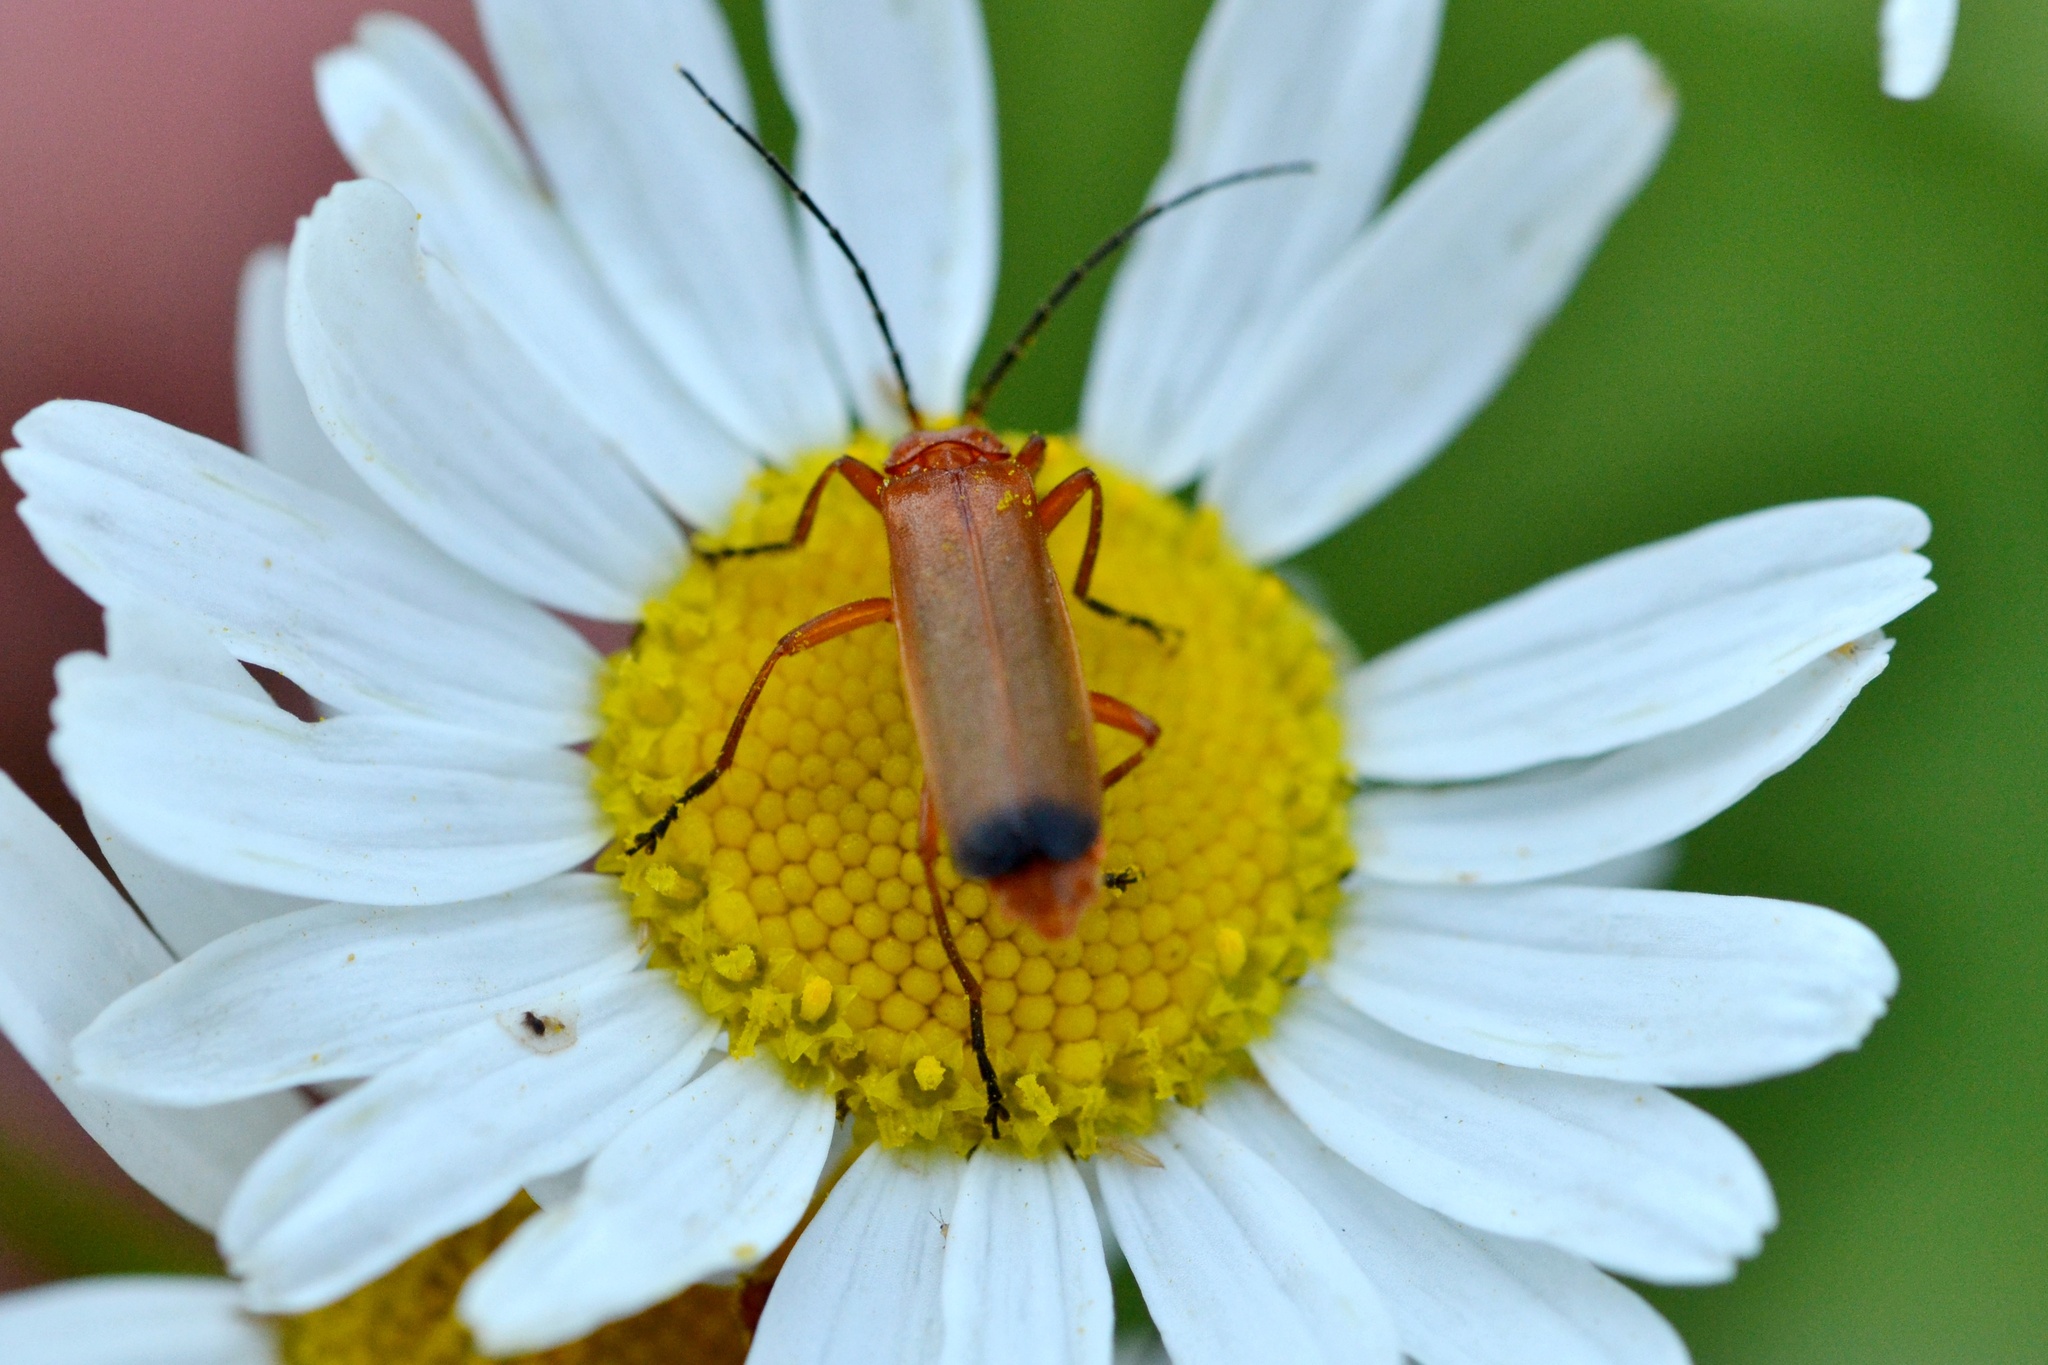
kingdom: Animalia
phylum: Arthropoda
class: Insecta
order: Coleoptera
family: Cantharidae
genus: Rhagonycha
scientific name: Rhagonycha fulva
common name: Common red soldier beetle
